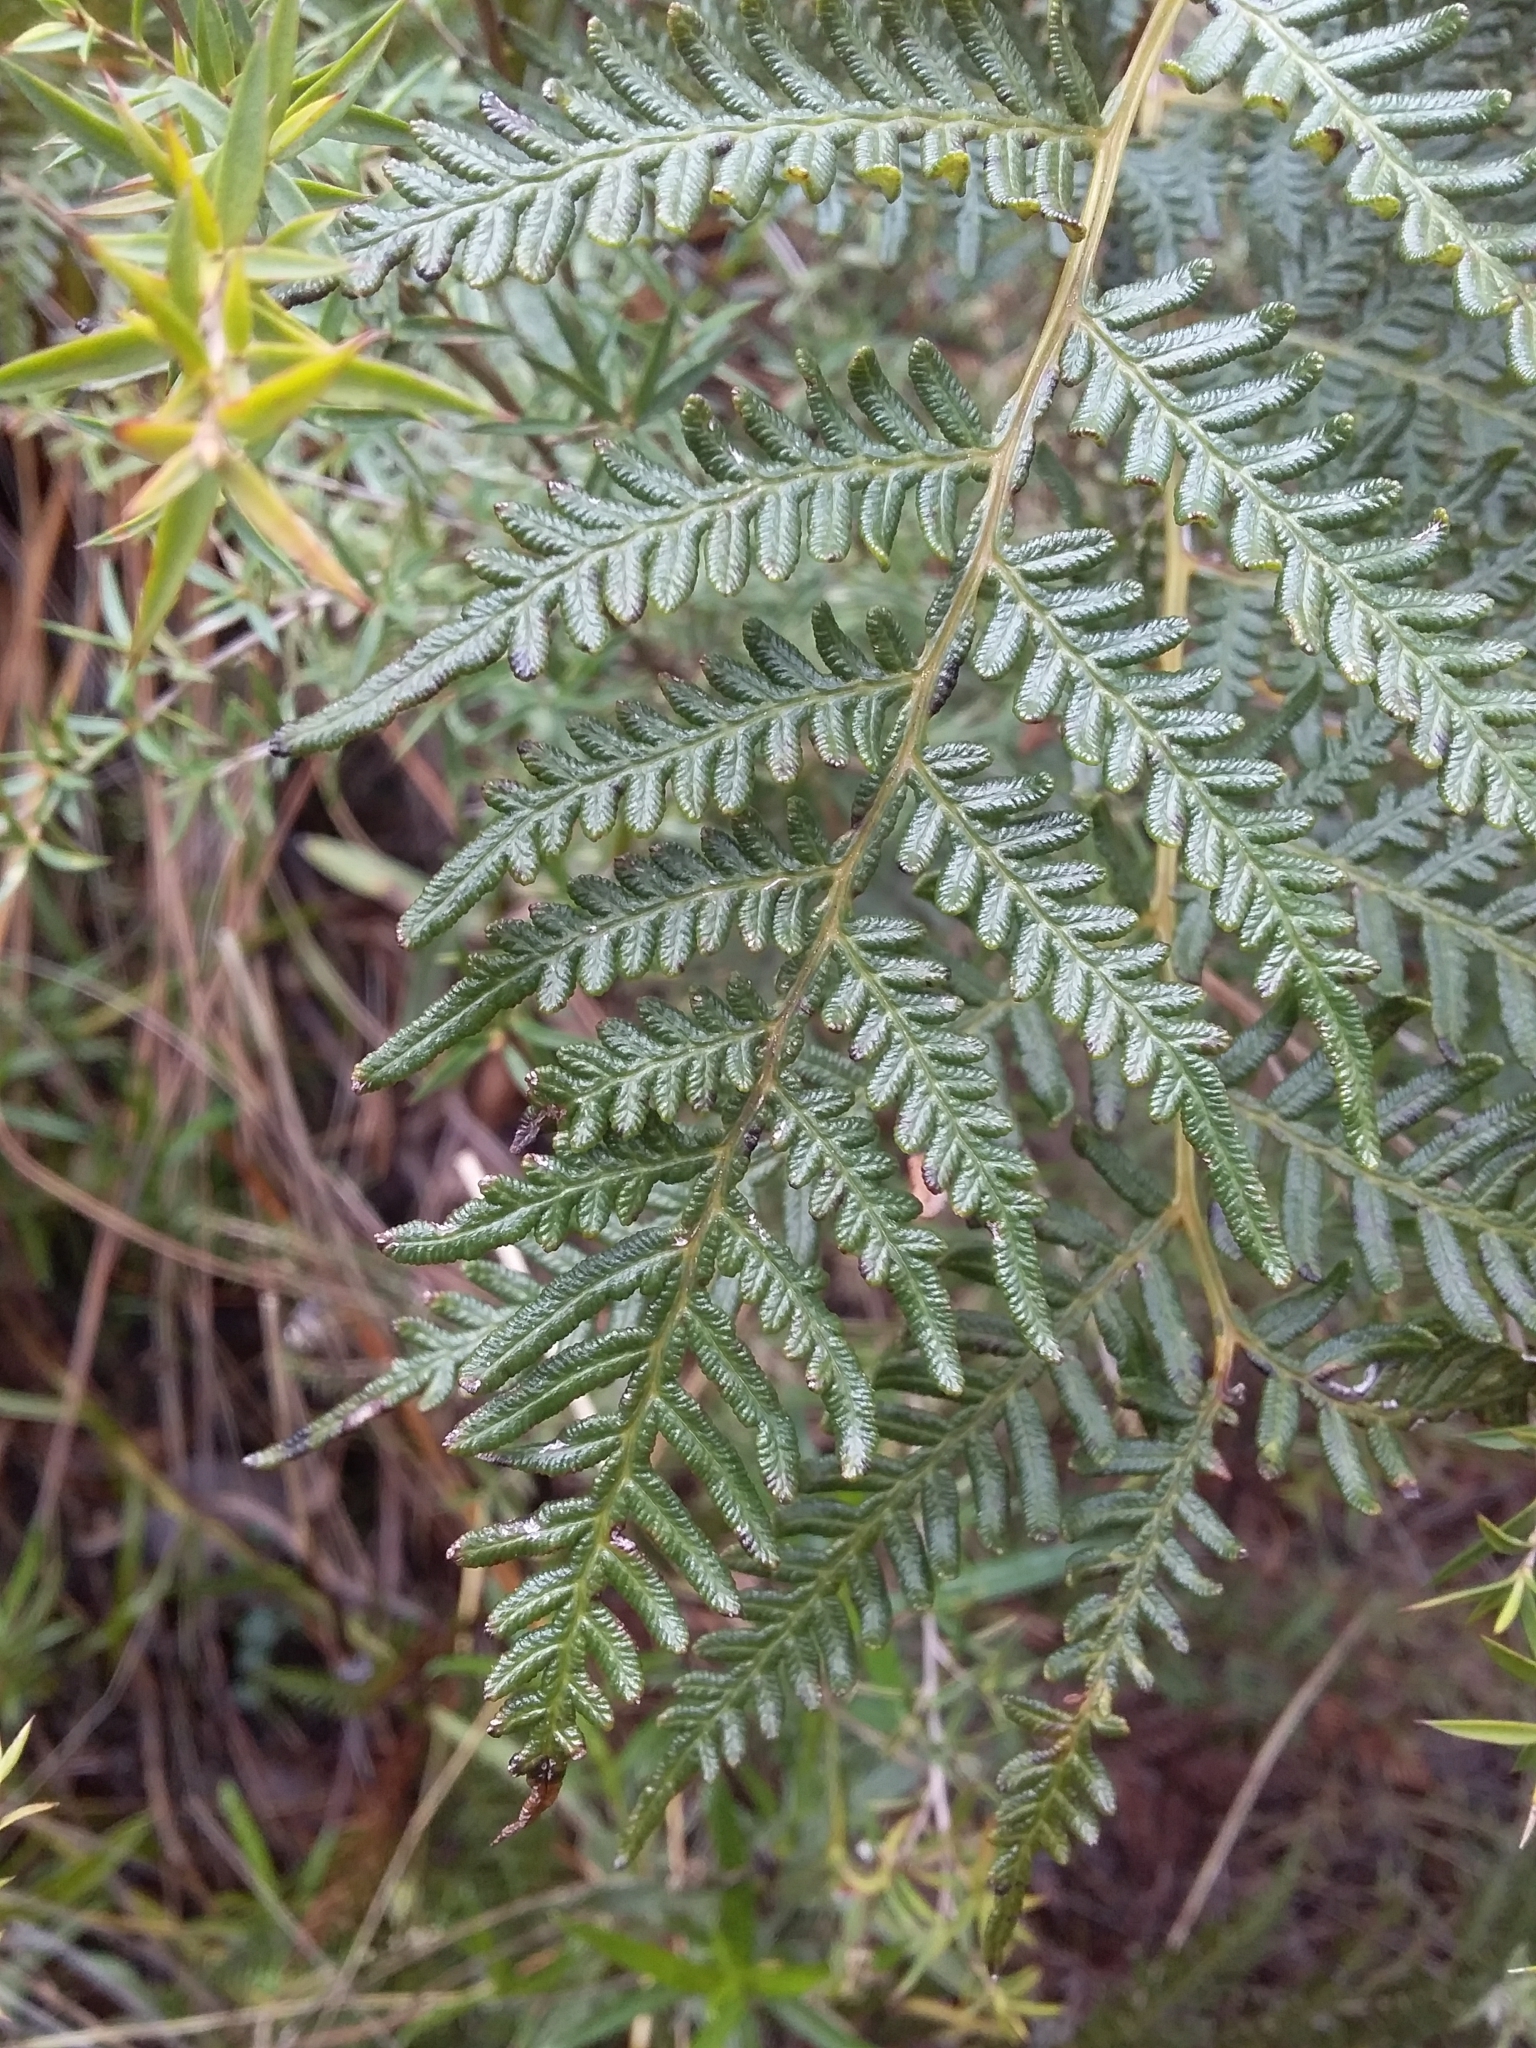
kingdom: Plantae
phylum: Tracheophyta
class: Polypodiopsida
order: Polypodiales
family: Dennstaedtiaceae
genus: Pteridium
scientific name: Pteridium esculentum
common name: Bracken fern
